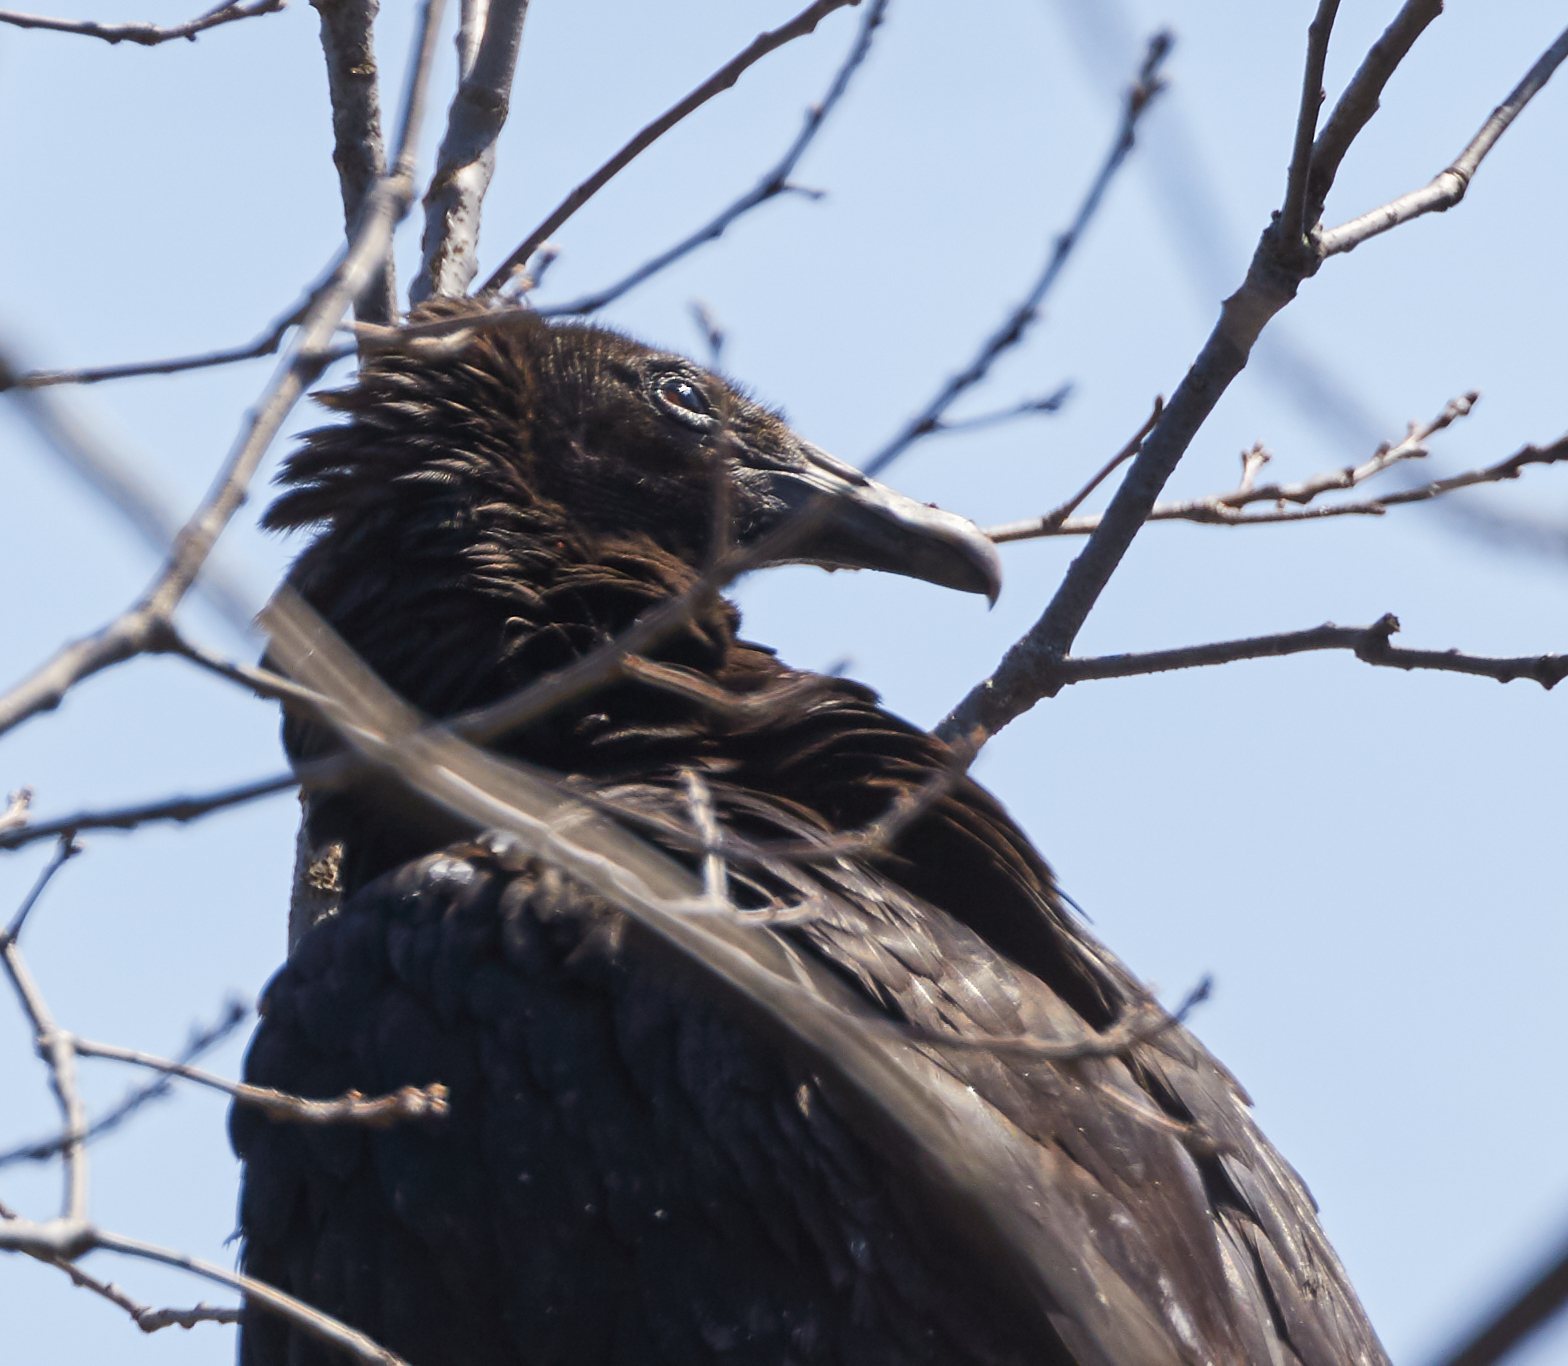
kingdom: Animalia
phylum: Chordata
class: Aves
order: Accipitriformes
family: Cathartidae
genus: Coragyps
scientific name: Coragyps atratus
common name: Black vulture
